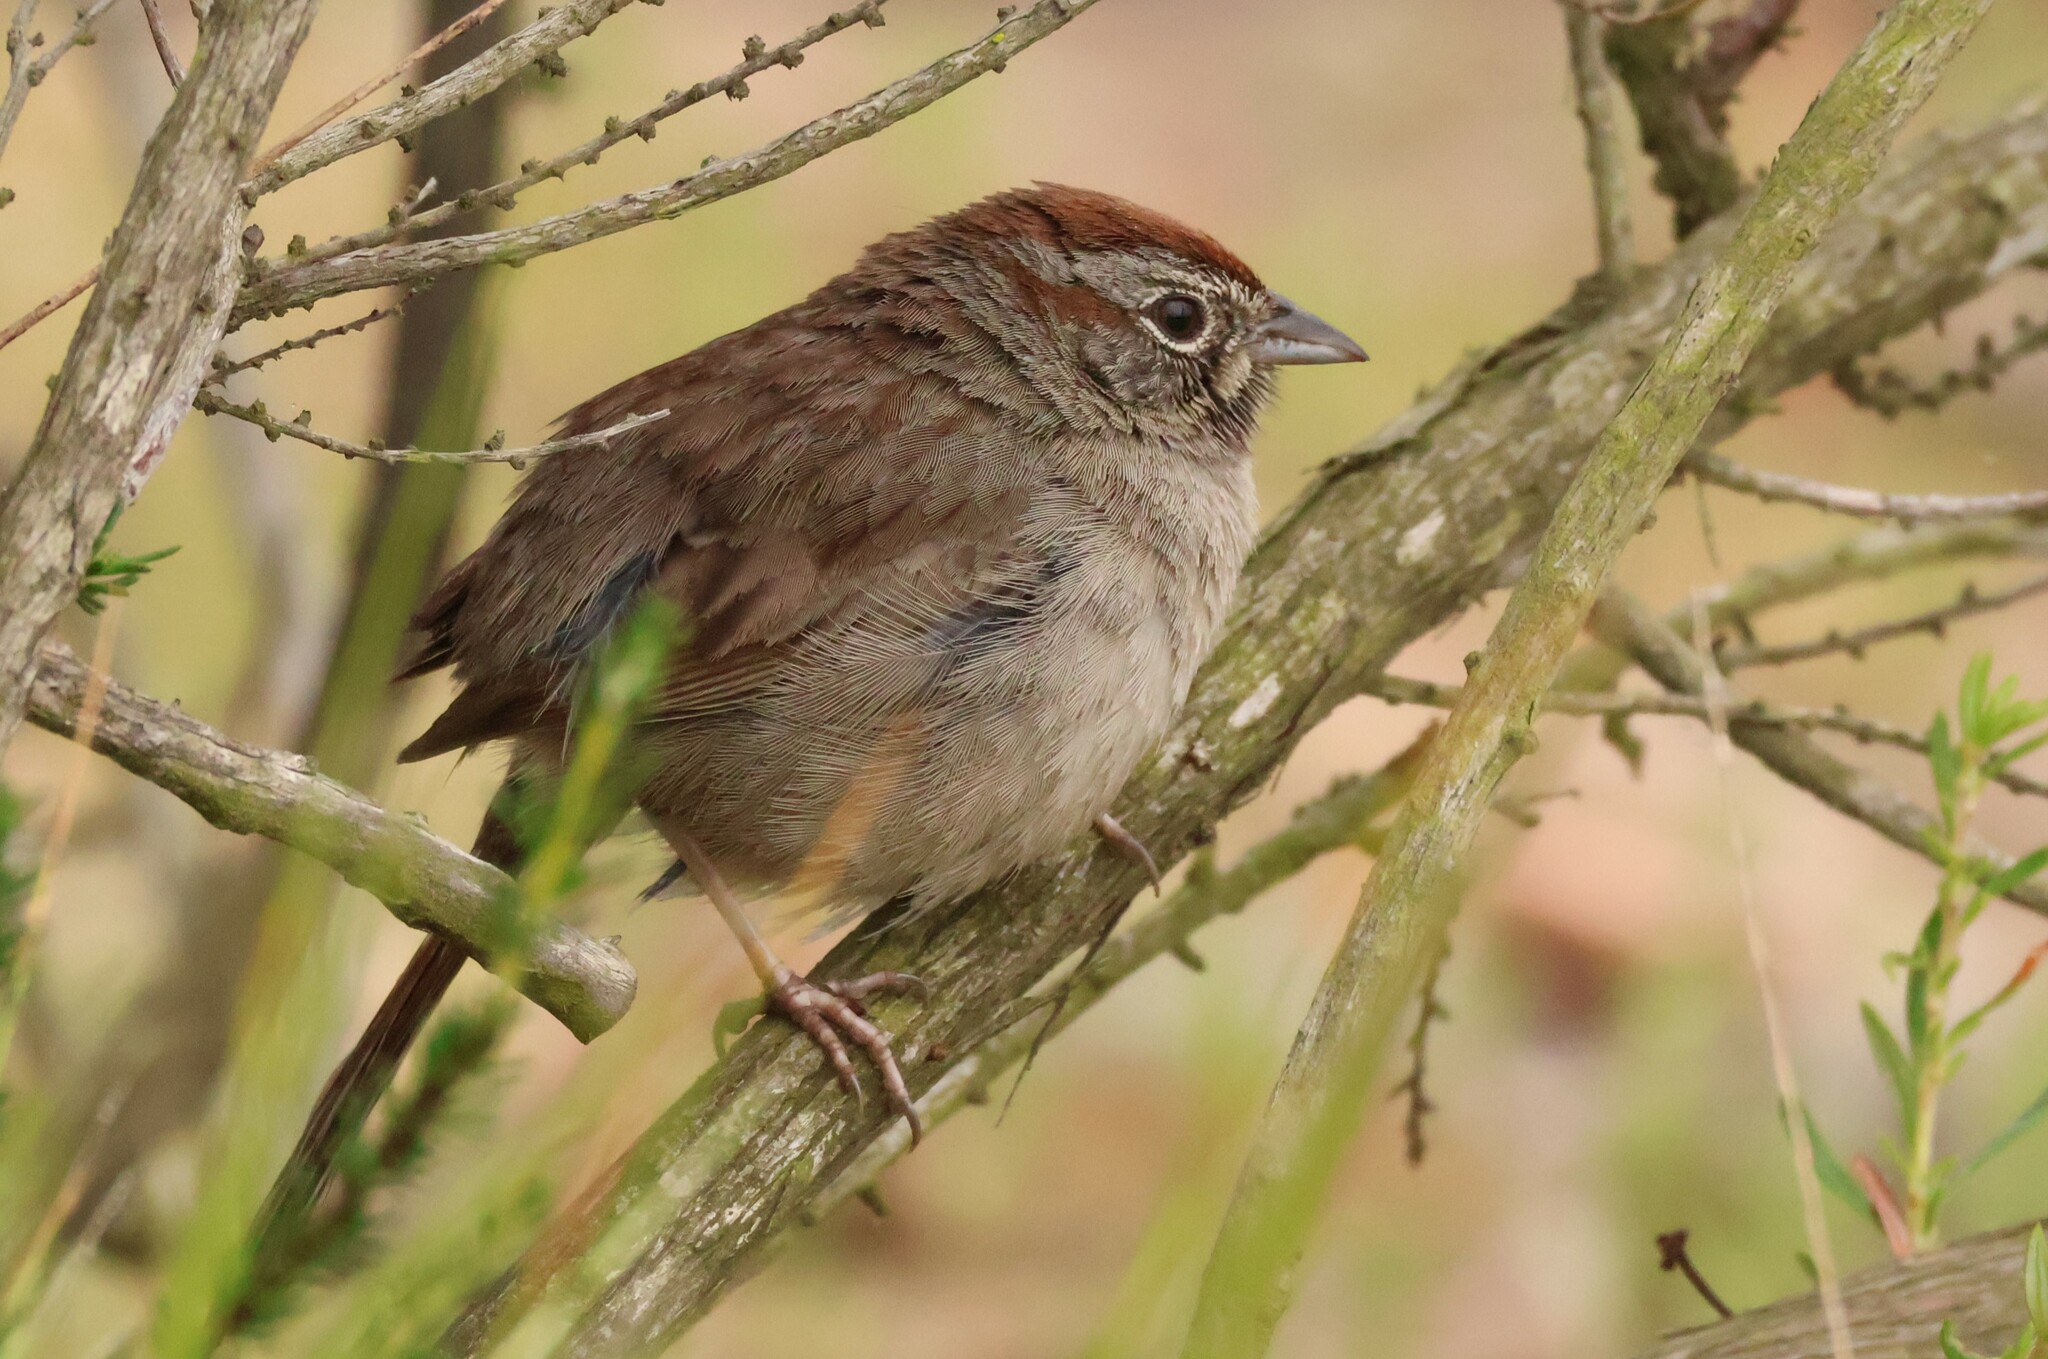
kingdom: Animalia
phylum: Chordata
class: Aves
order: Passeriformes
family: Passerellidae
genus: Aimophila
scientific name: Aimophila ruficeps
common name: Rufous-crowned sparrow
